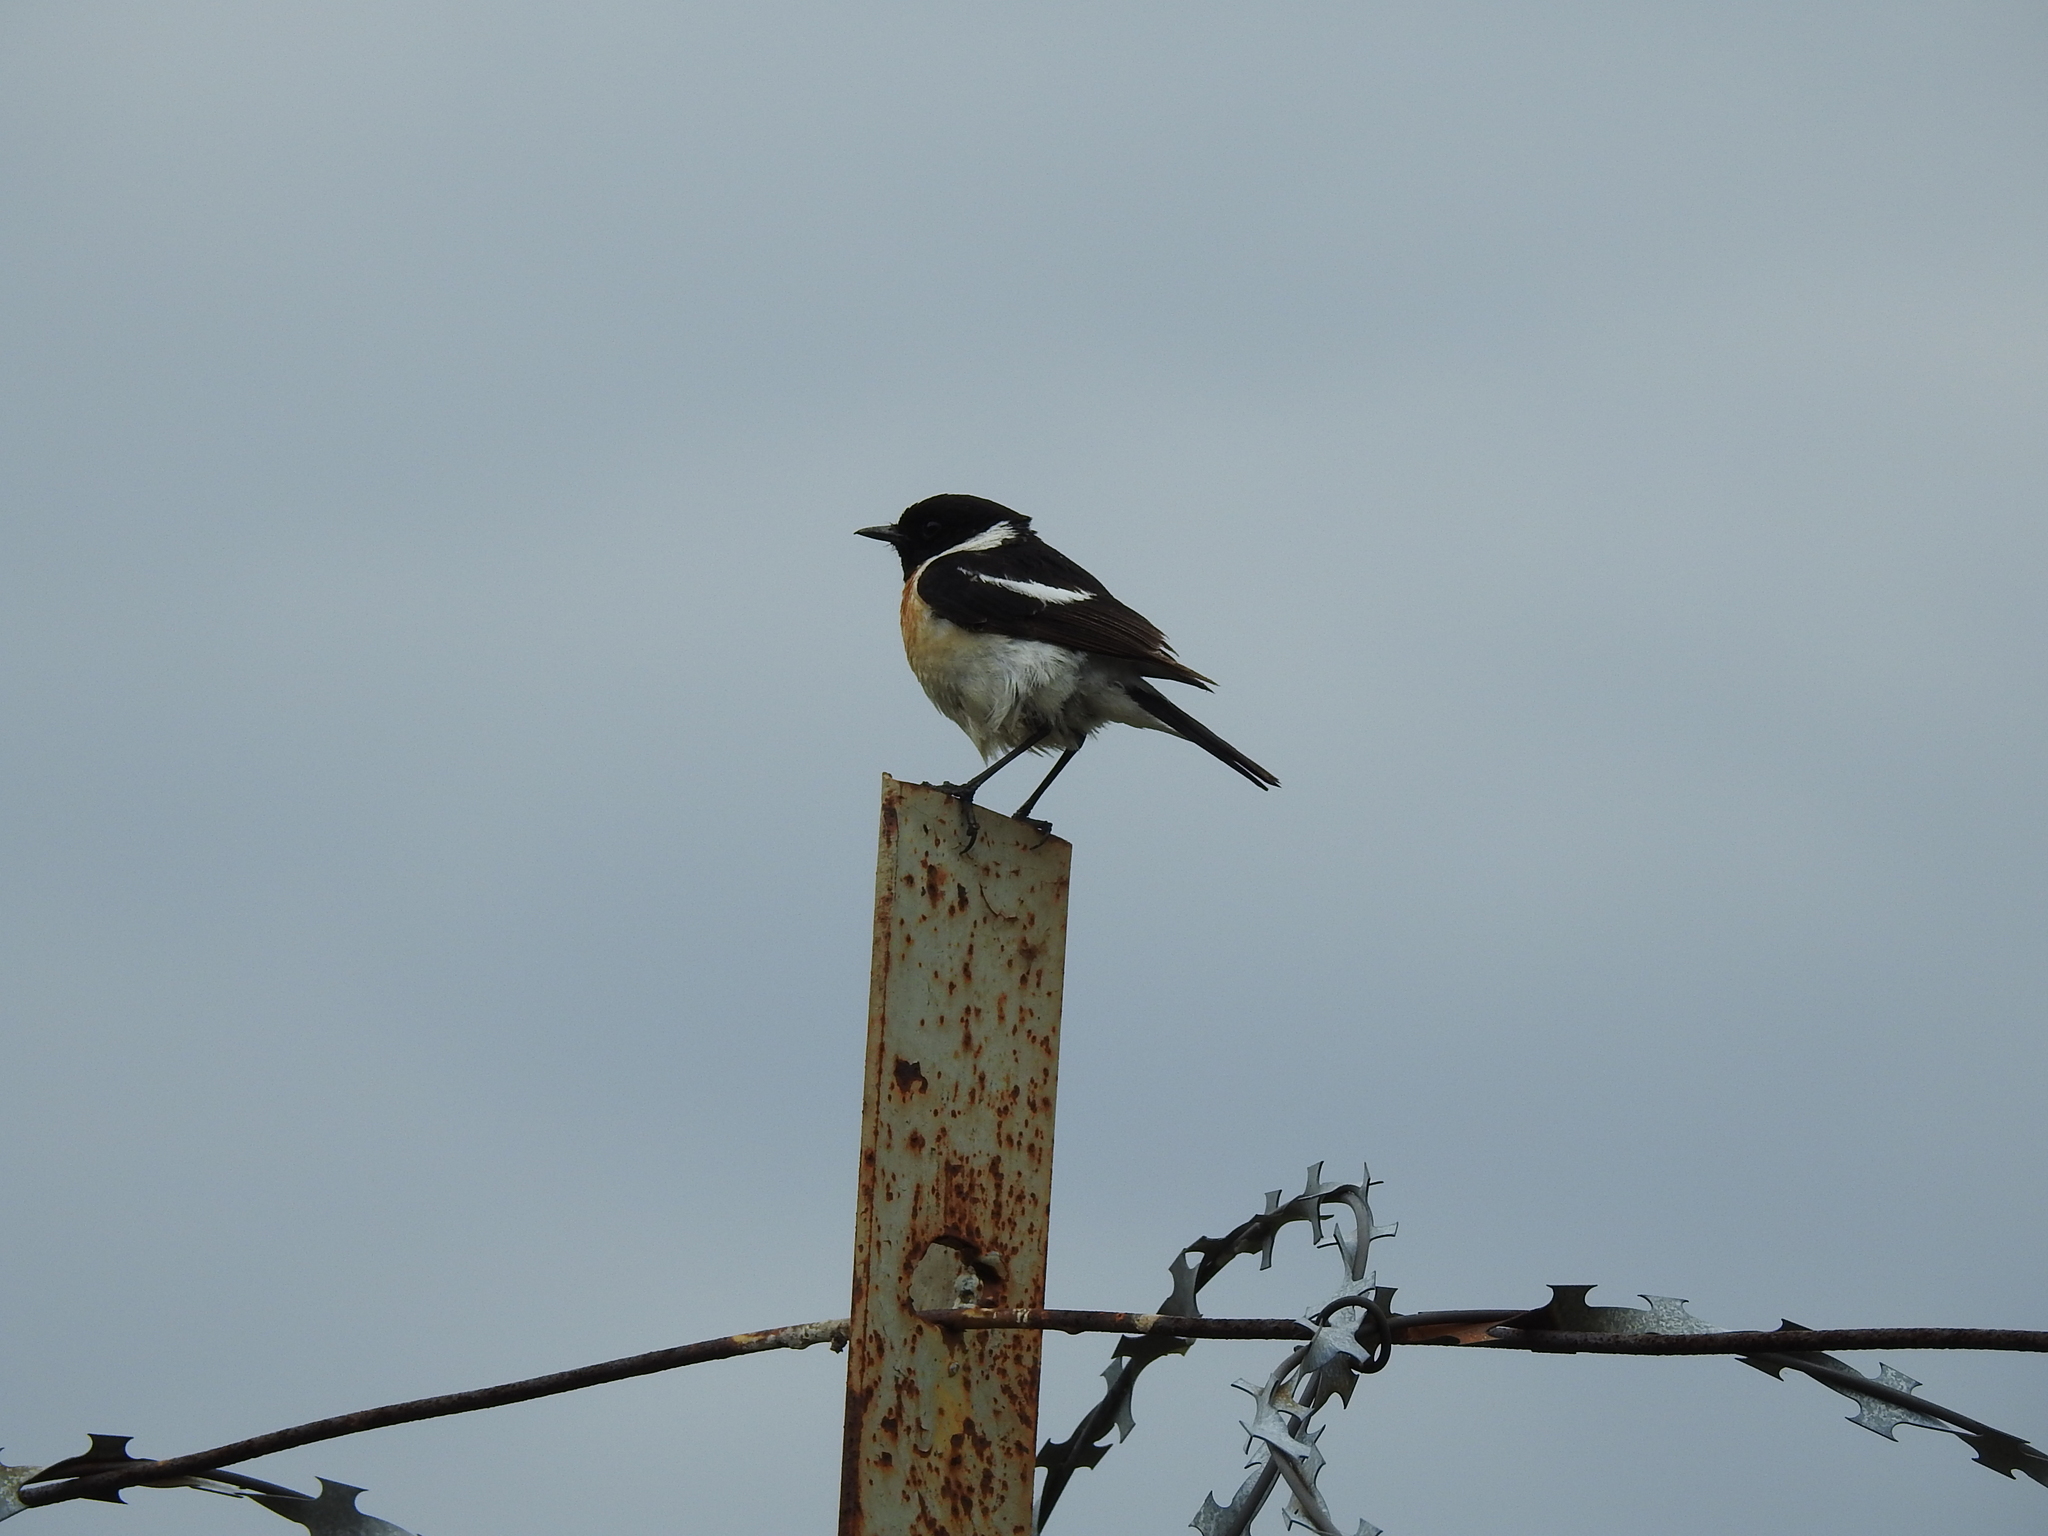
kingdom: Animalia
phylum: Chordata
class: Aves
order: Passeriformes
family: Muscicapidae
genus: Saxicola
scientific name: Saxicola maurus
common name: Siberian stonechat
